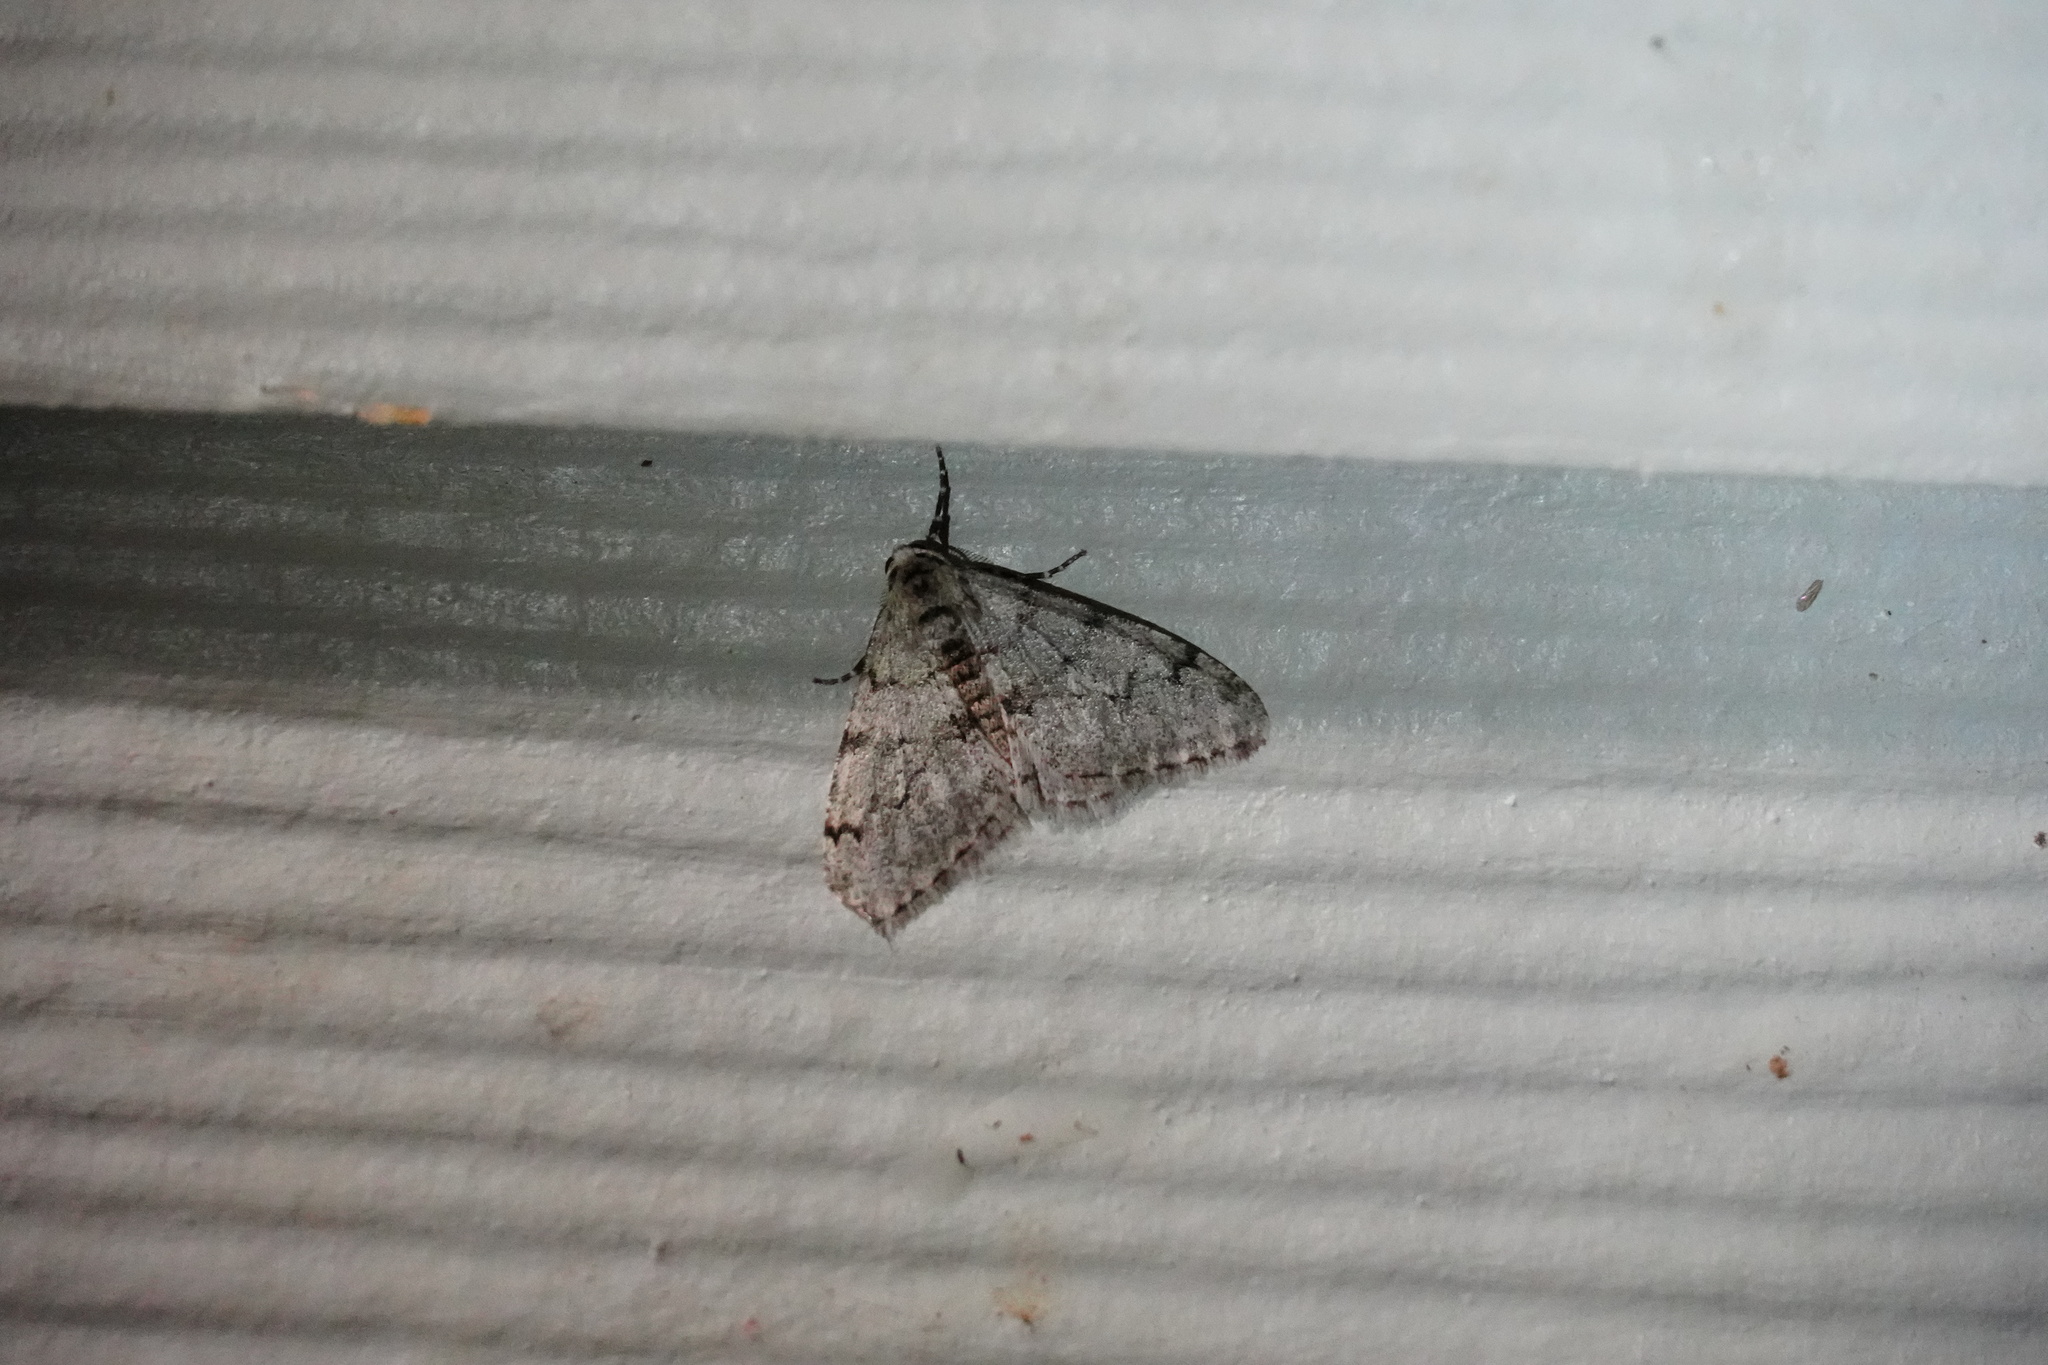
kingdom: Animalia
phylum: Arthropoda
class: Insecta
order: Lepidoptera
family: Geometridae
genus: Phigalia
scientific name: Phigalia strigataria
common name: Small phigalia
